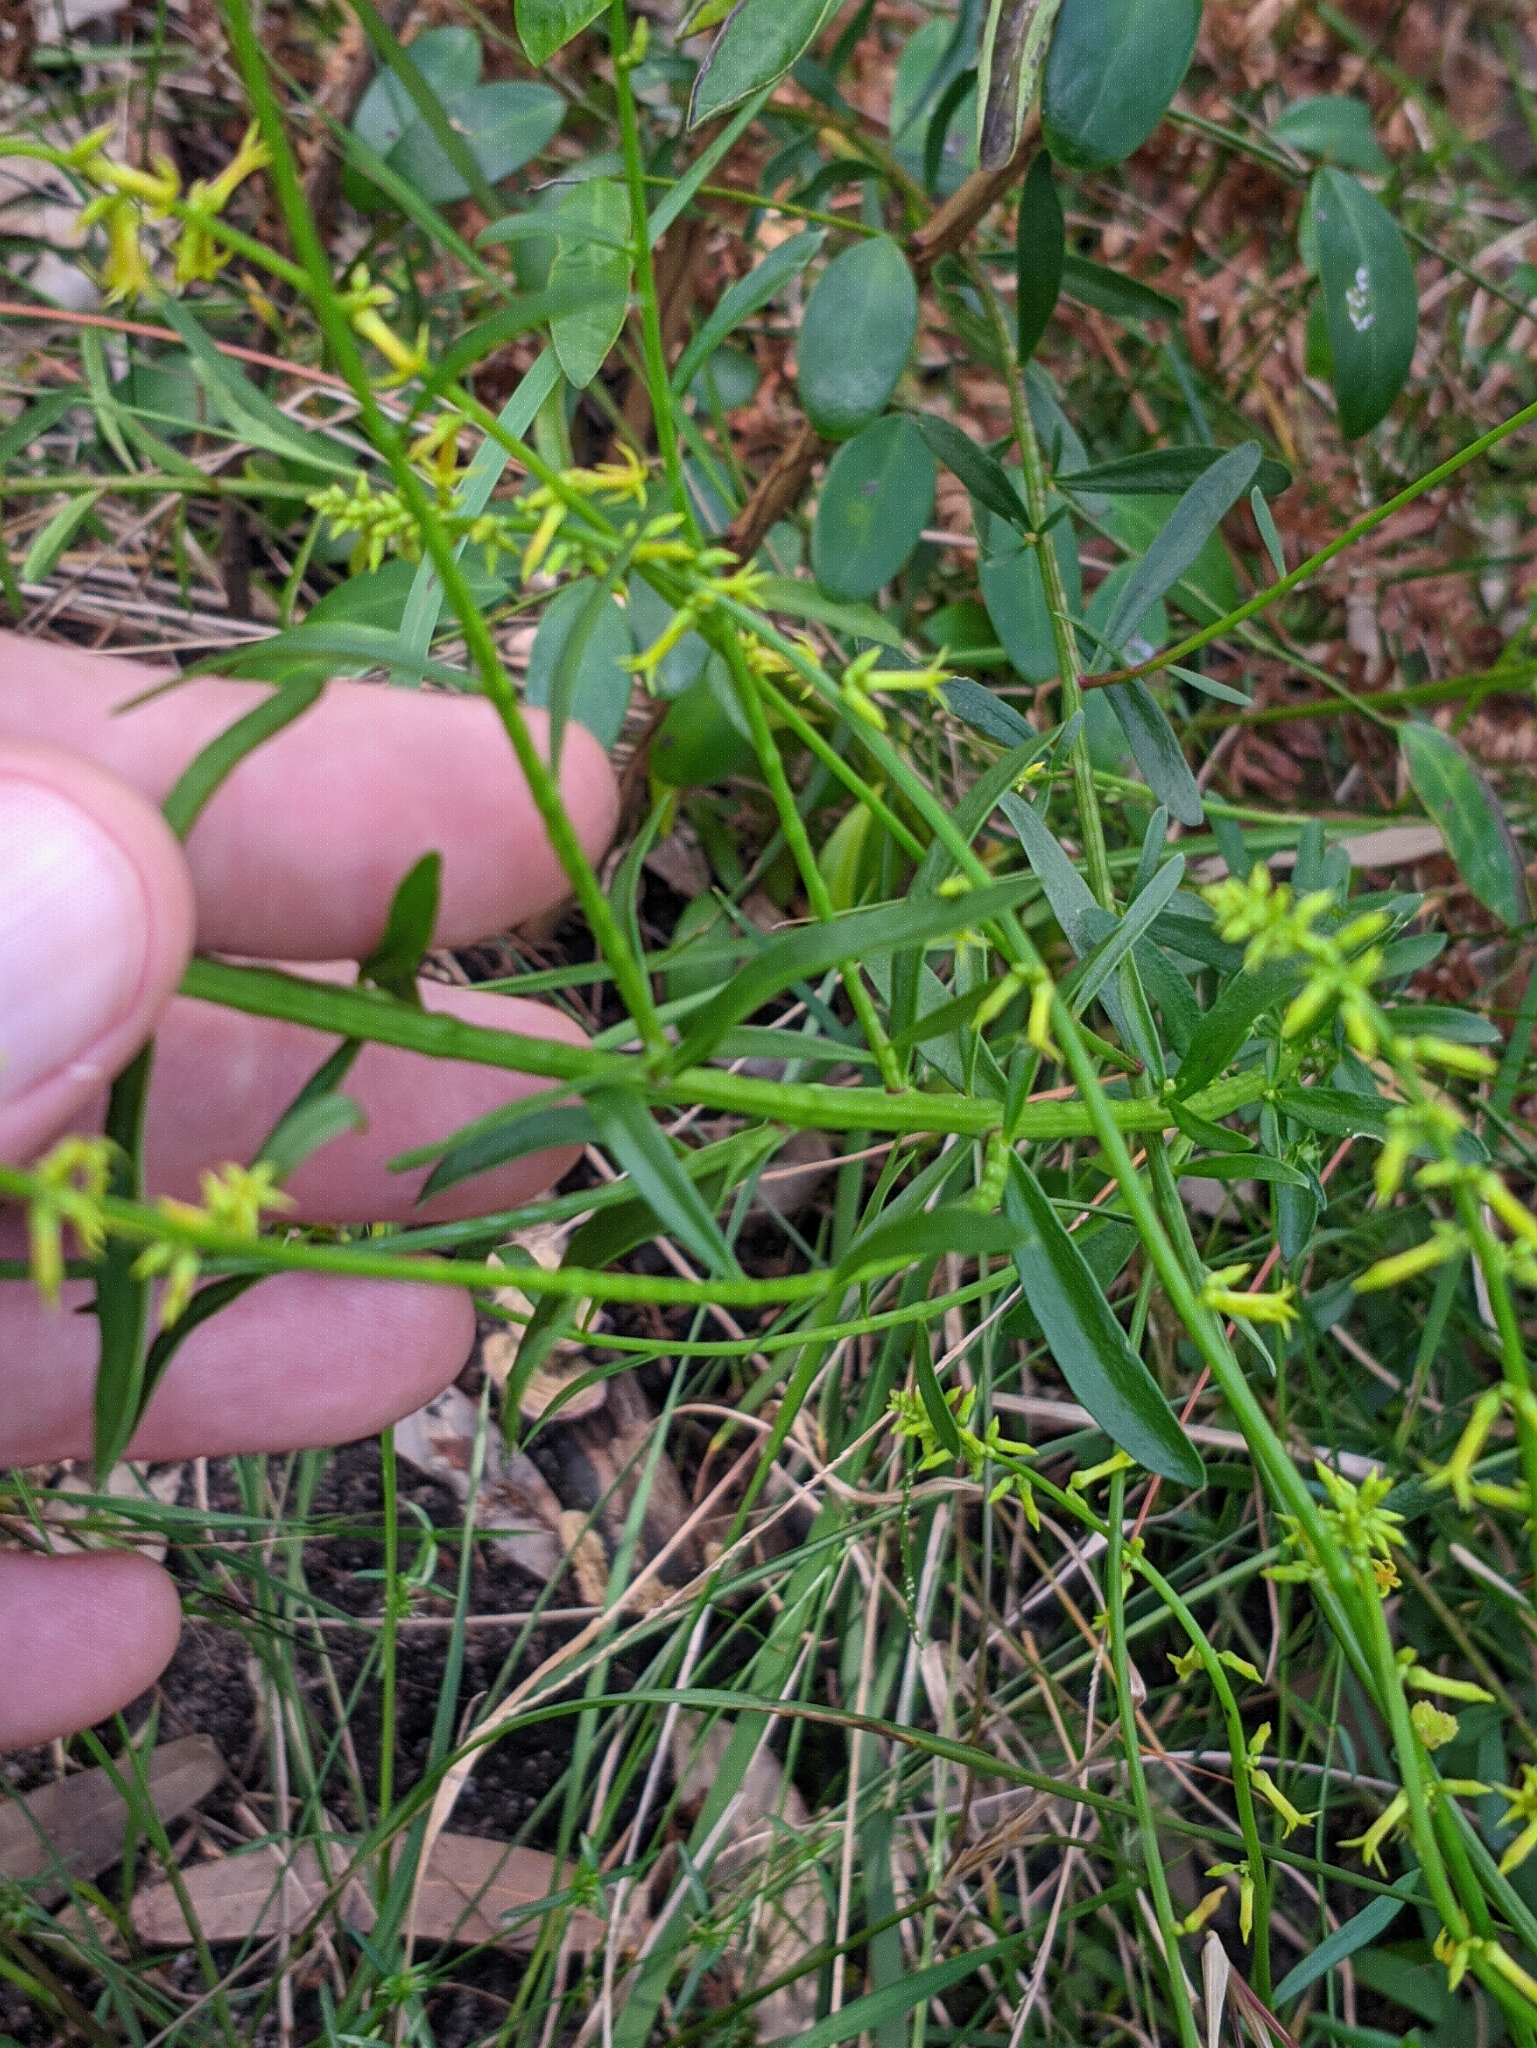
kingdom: Plantae
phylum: Tracheophyta
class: Magnoliopsida
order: Celastrales
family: Celastraceae
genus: Stackhousia
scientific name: Stackhousia viminea
